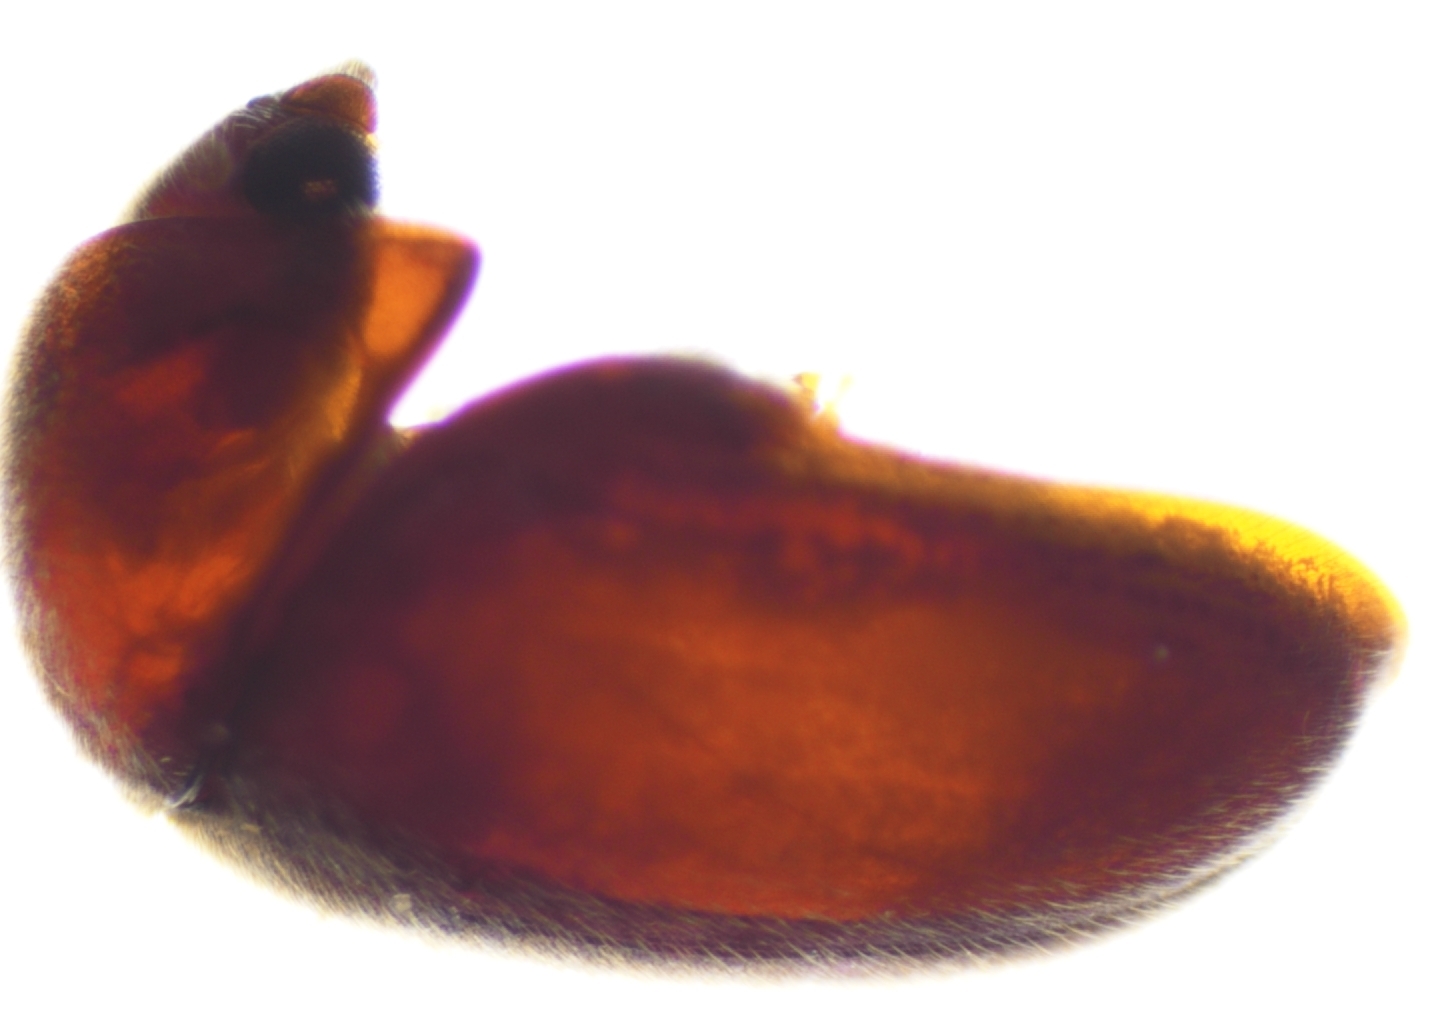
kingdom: Animalia
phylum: Arthropoda
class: Insecta
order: Coleoptera
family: Anobiidae
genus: Lasioderma
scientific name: Lasioderma serricorne
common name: Cigarette beetle
